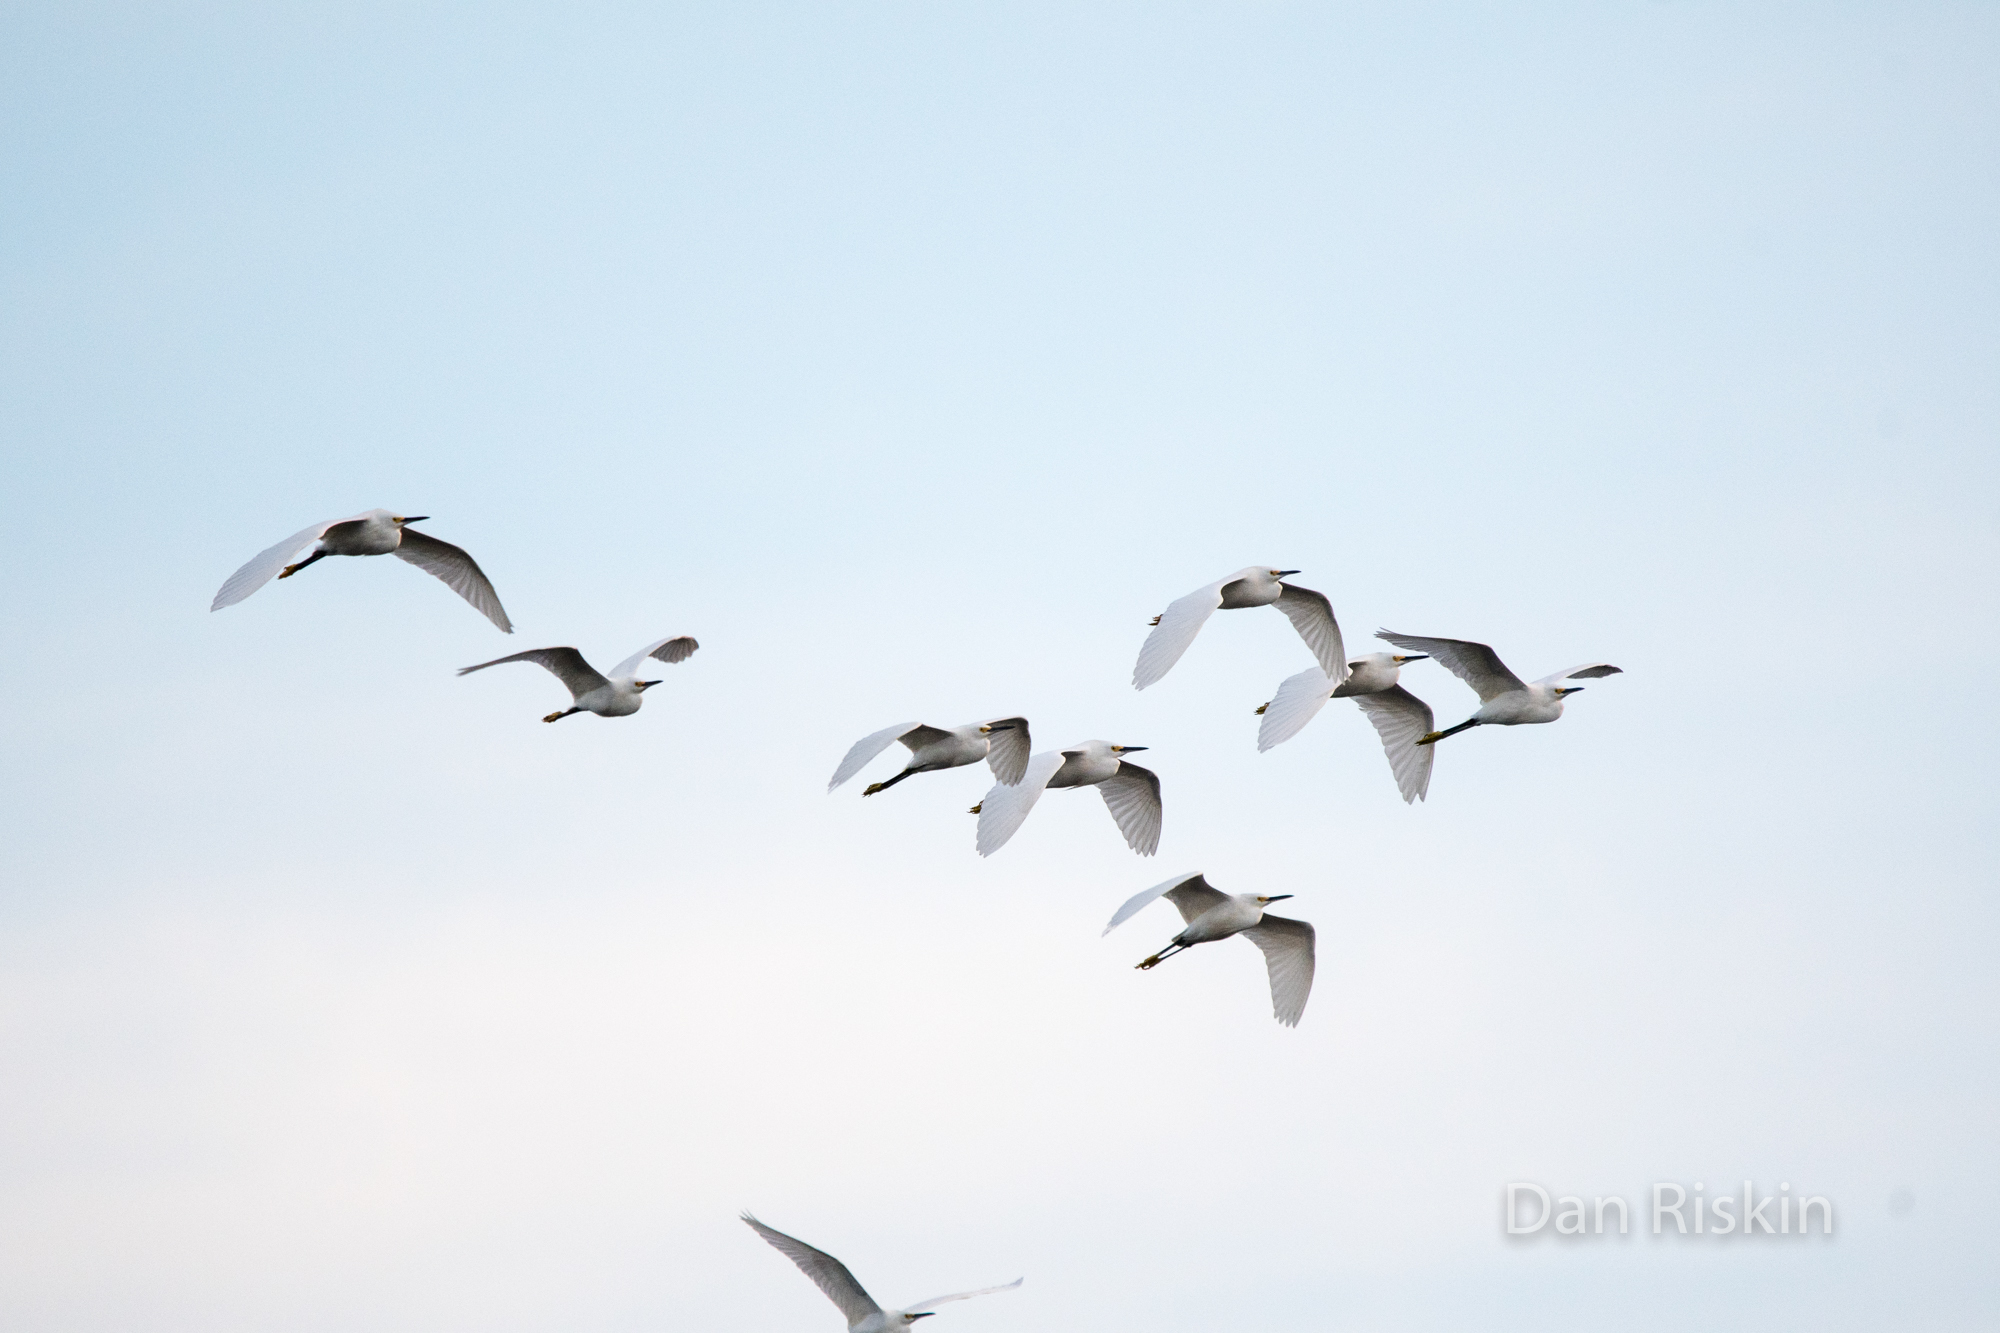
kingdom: Animalia
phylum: Chordata
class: Aves
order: Pelecaniformes
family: Ardeidae
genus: Egretta
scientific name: Egretta thula
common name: Snowy egret
